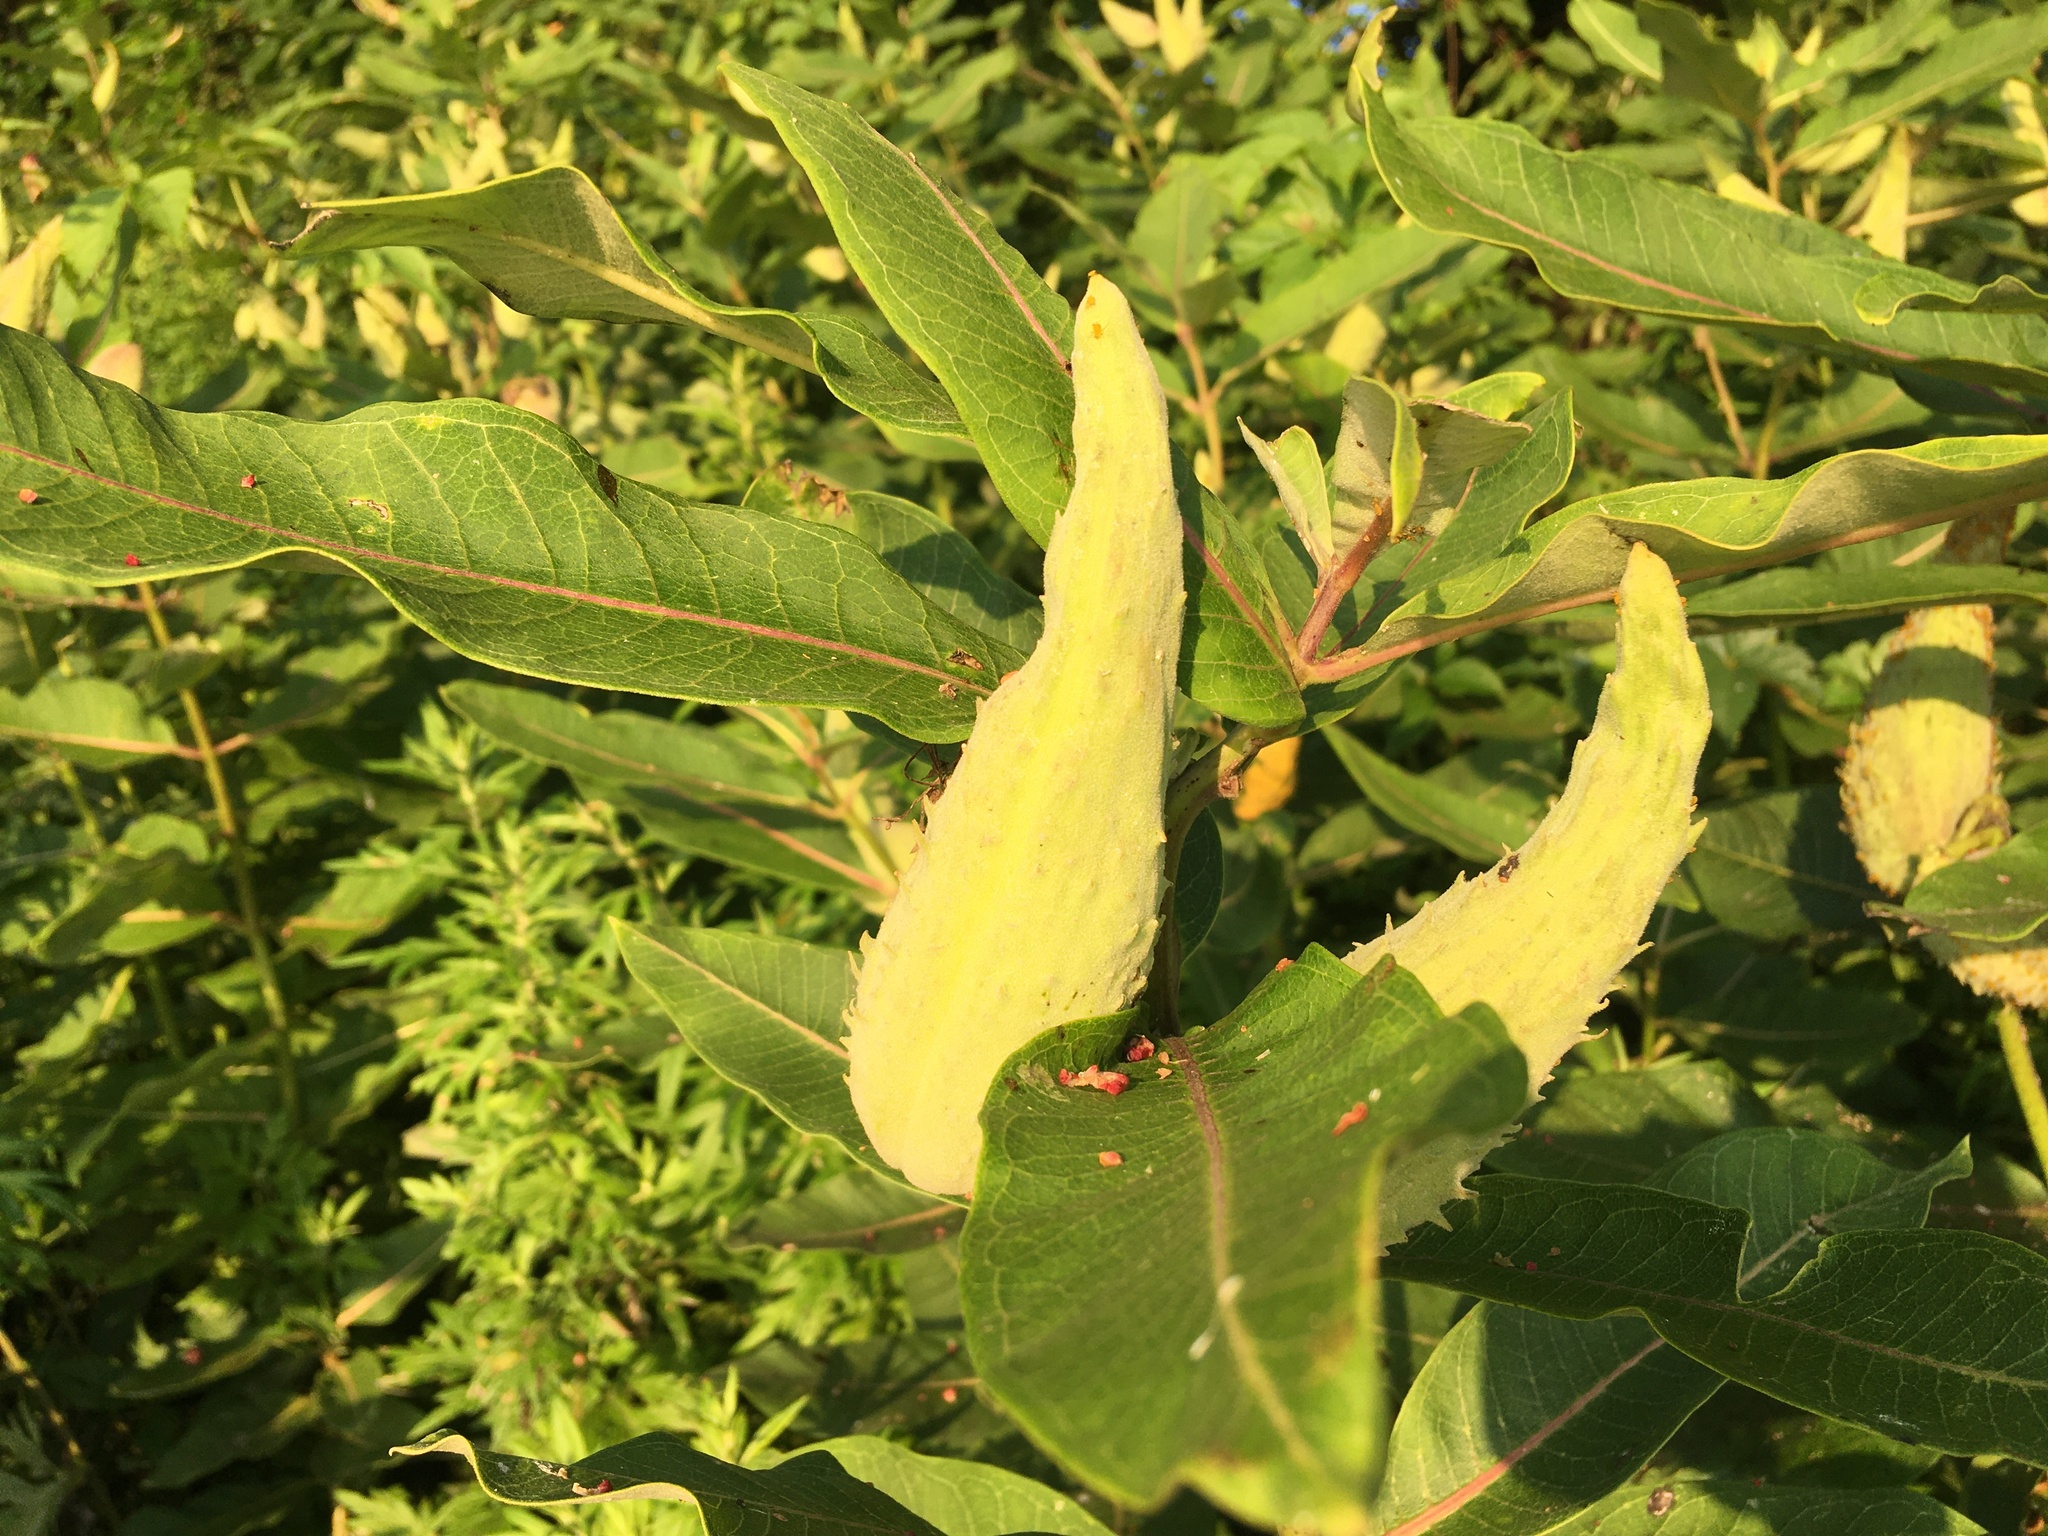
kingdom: Plantae
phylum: Tracheophyta
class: Magnoliopsida
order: Gentianales
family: Apocynaceae
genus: Asclepias
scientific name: Asclepias syriaca
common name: Common milkweed
